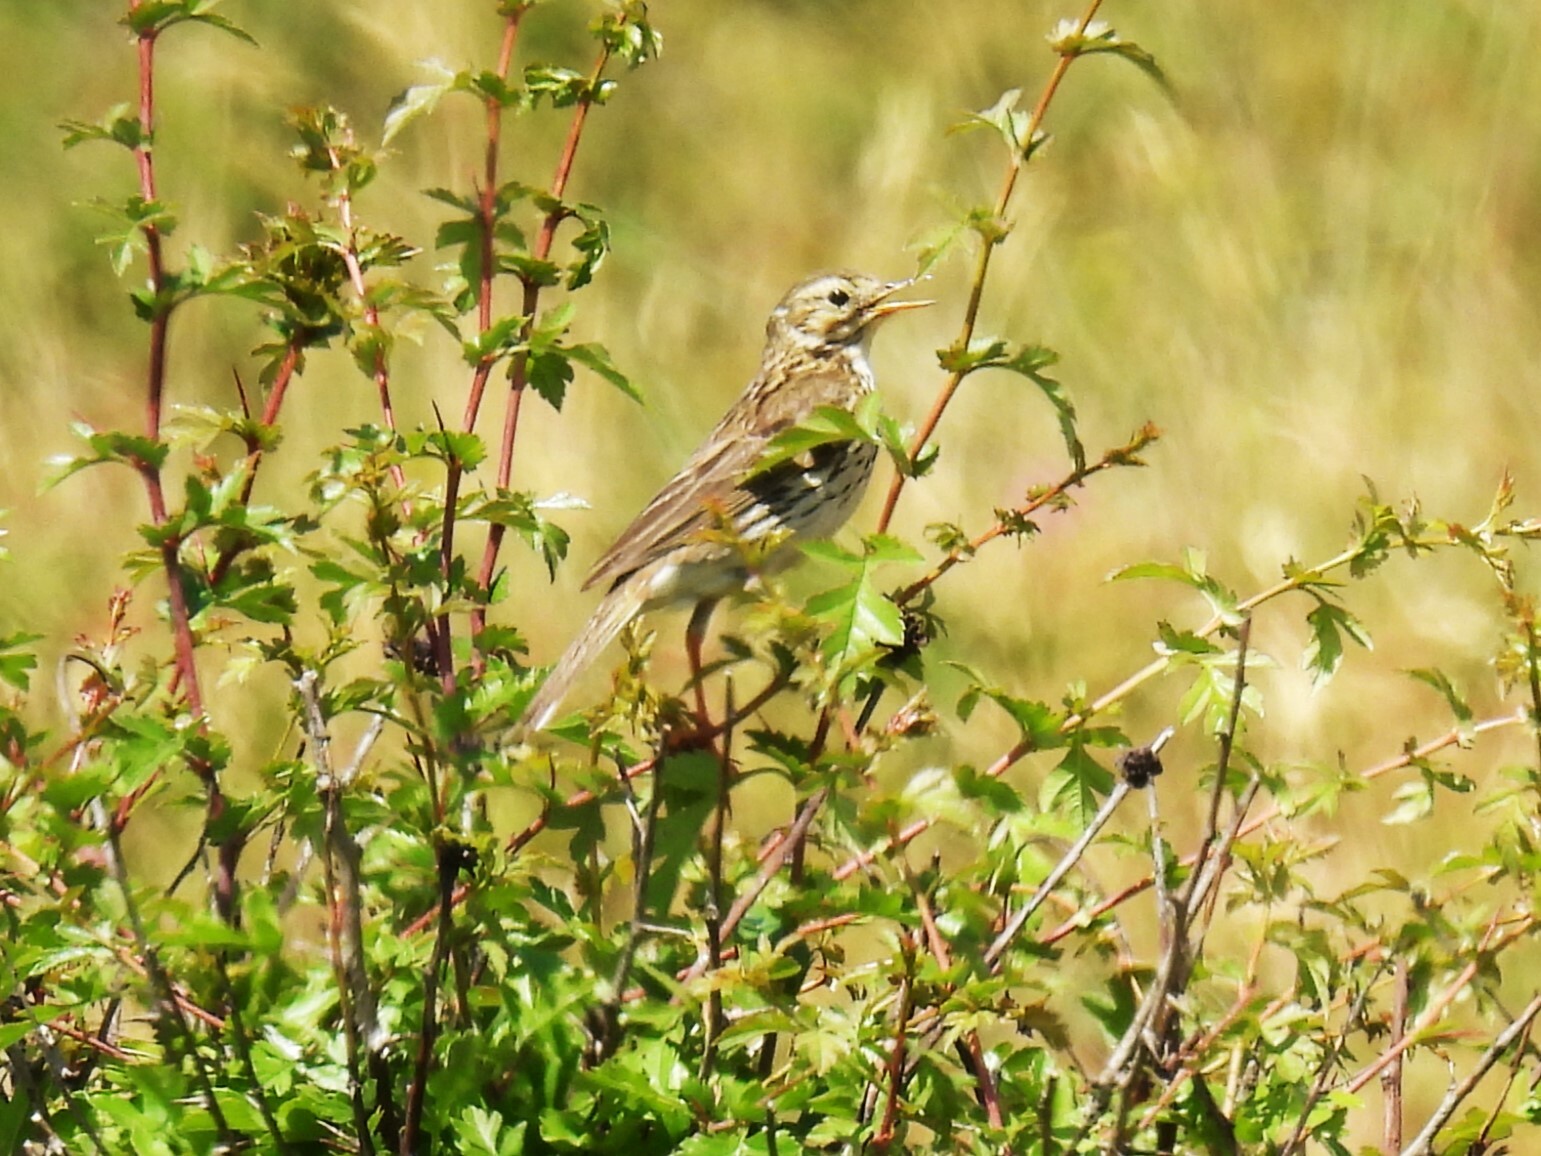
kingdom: Animalia
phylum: Chordata
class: Aves
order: Passeriformes
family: Motacillidae
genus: Anthus
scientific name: Anthus pratensis
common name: Meadow pipit
